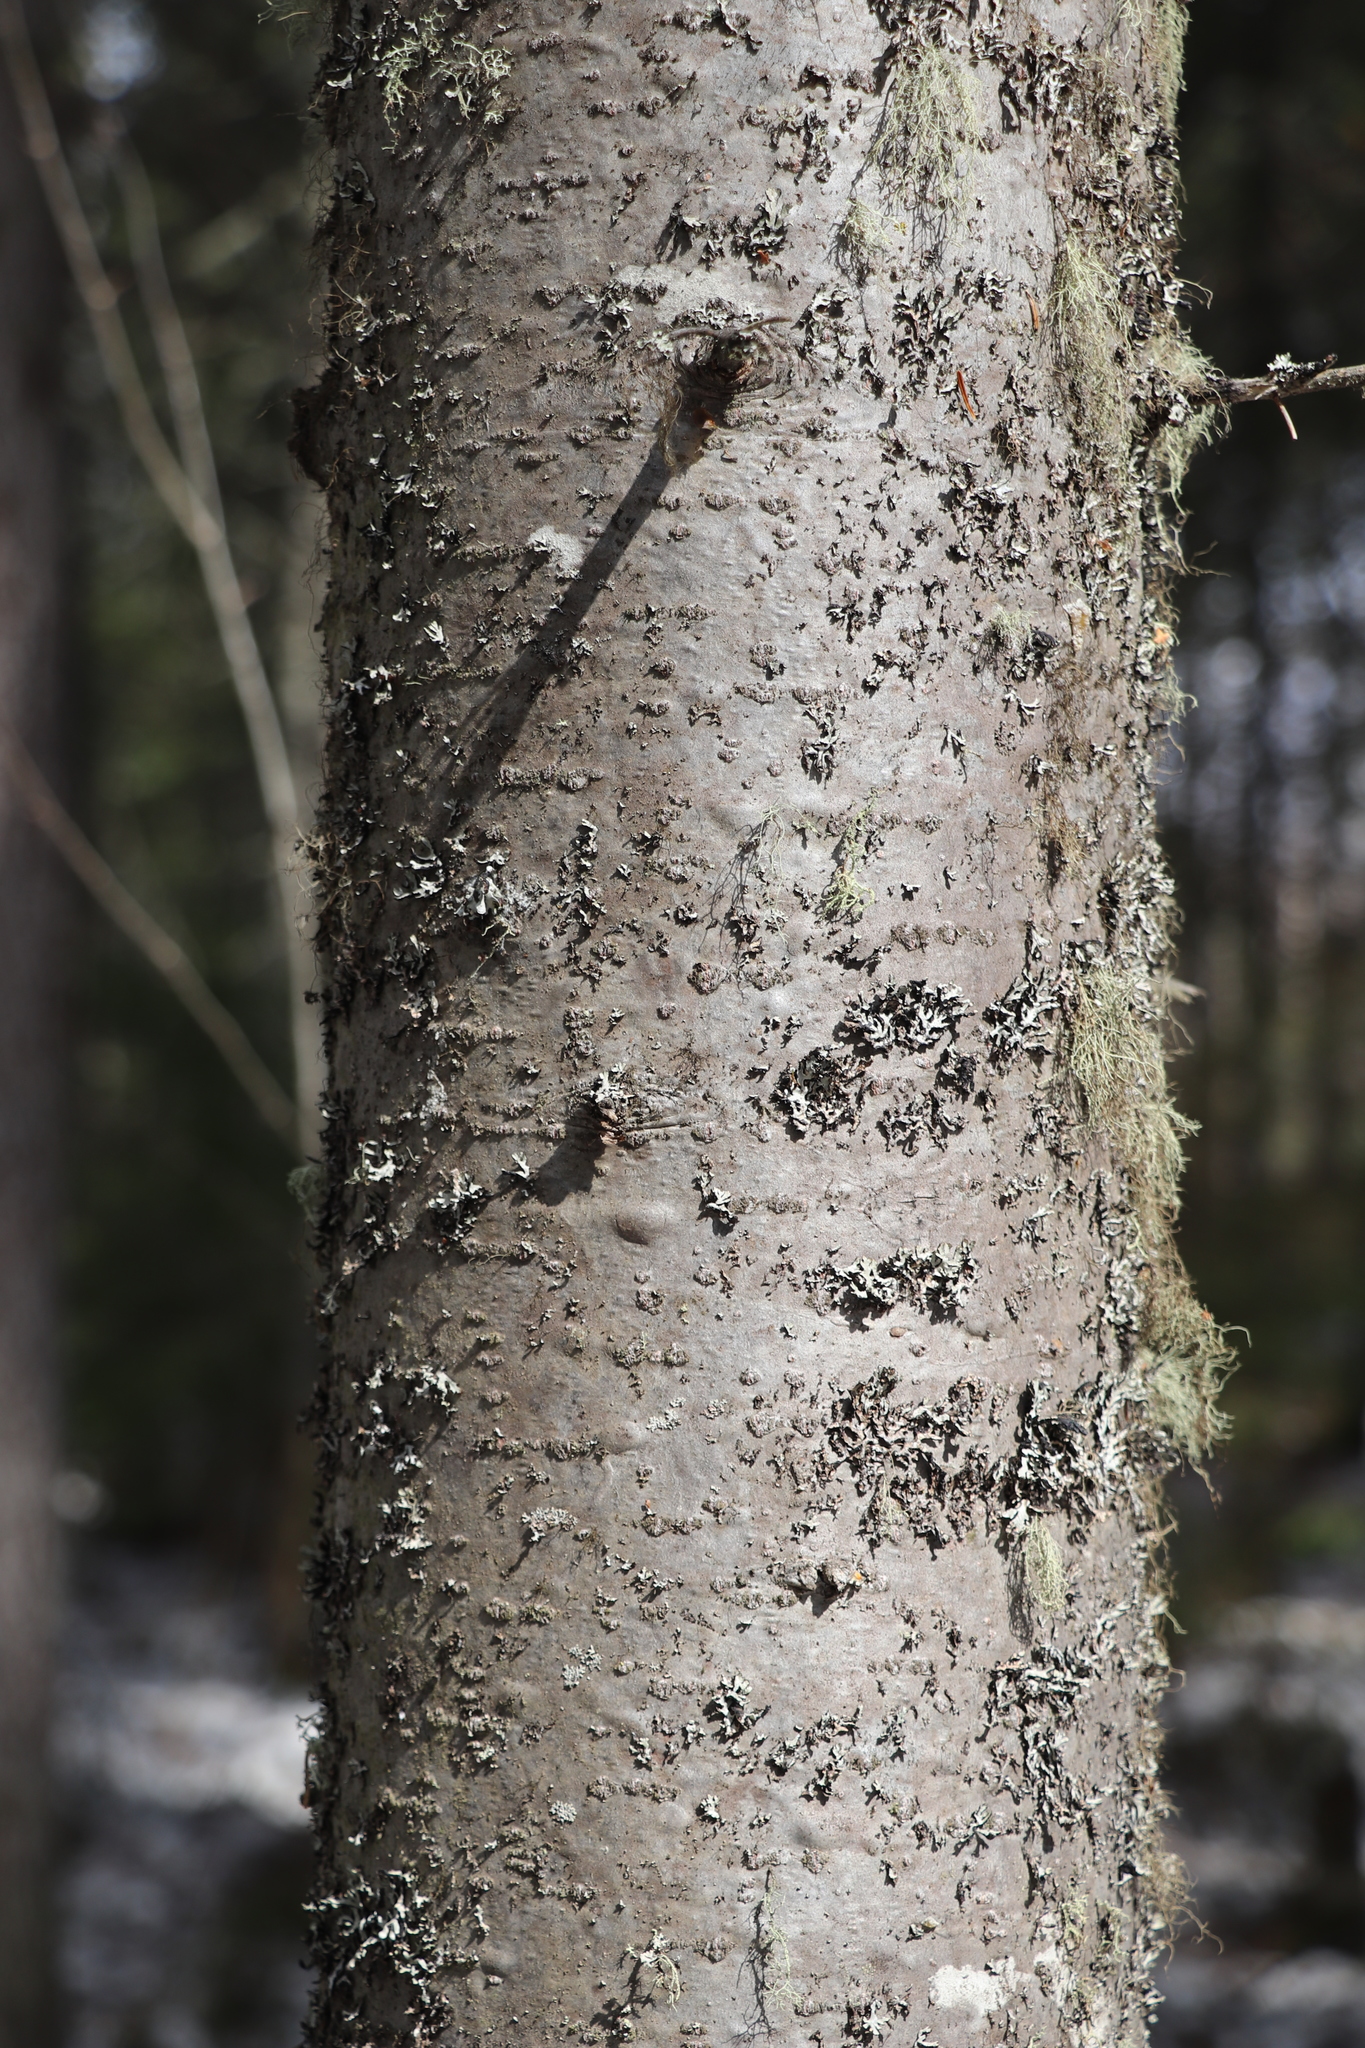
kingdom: Plantae
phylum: Tracheophyta
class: Pinopsida
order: Pinales
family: Pinaceae
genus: Abies
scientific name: Abies sibirica
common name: Siberian fir
